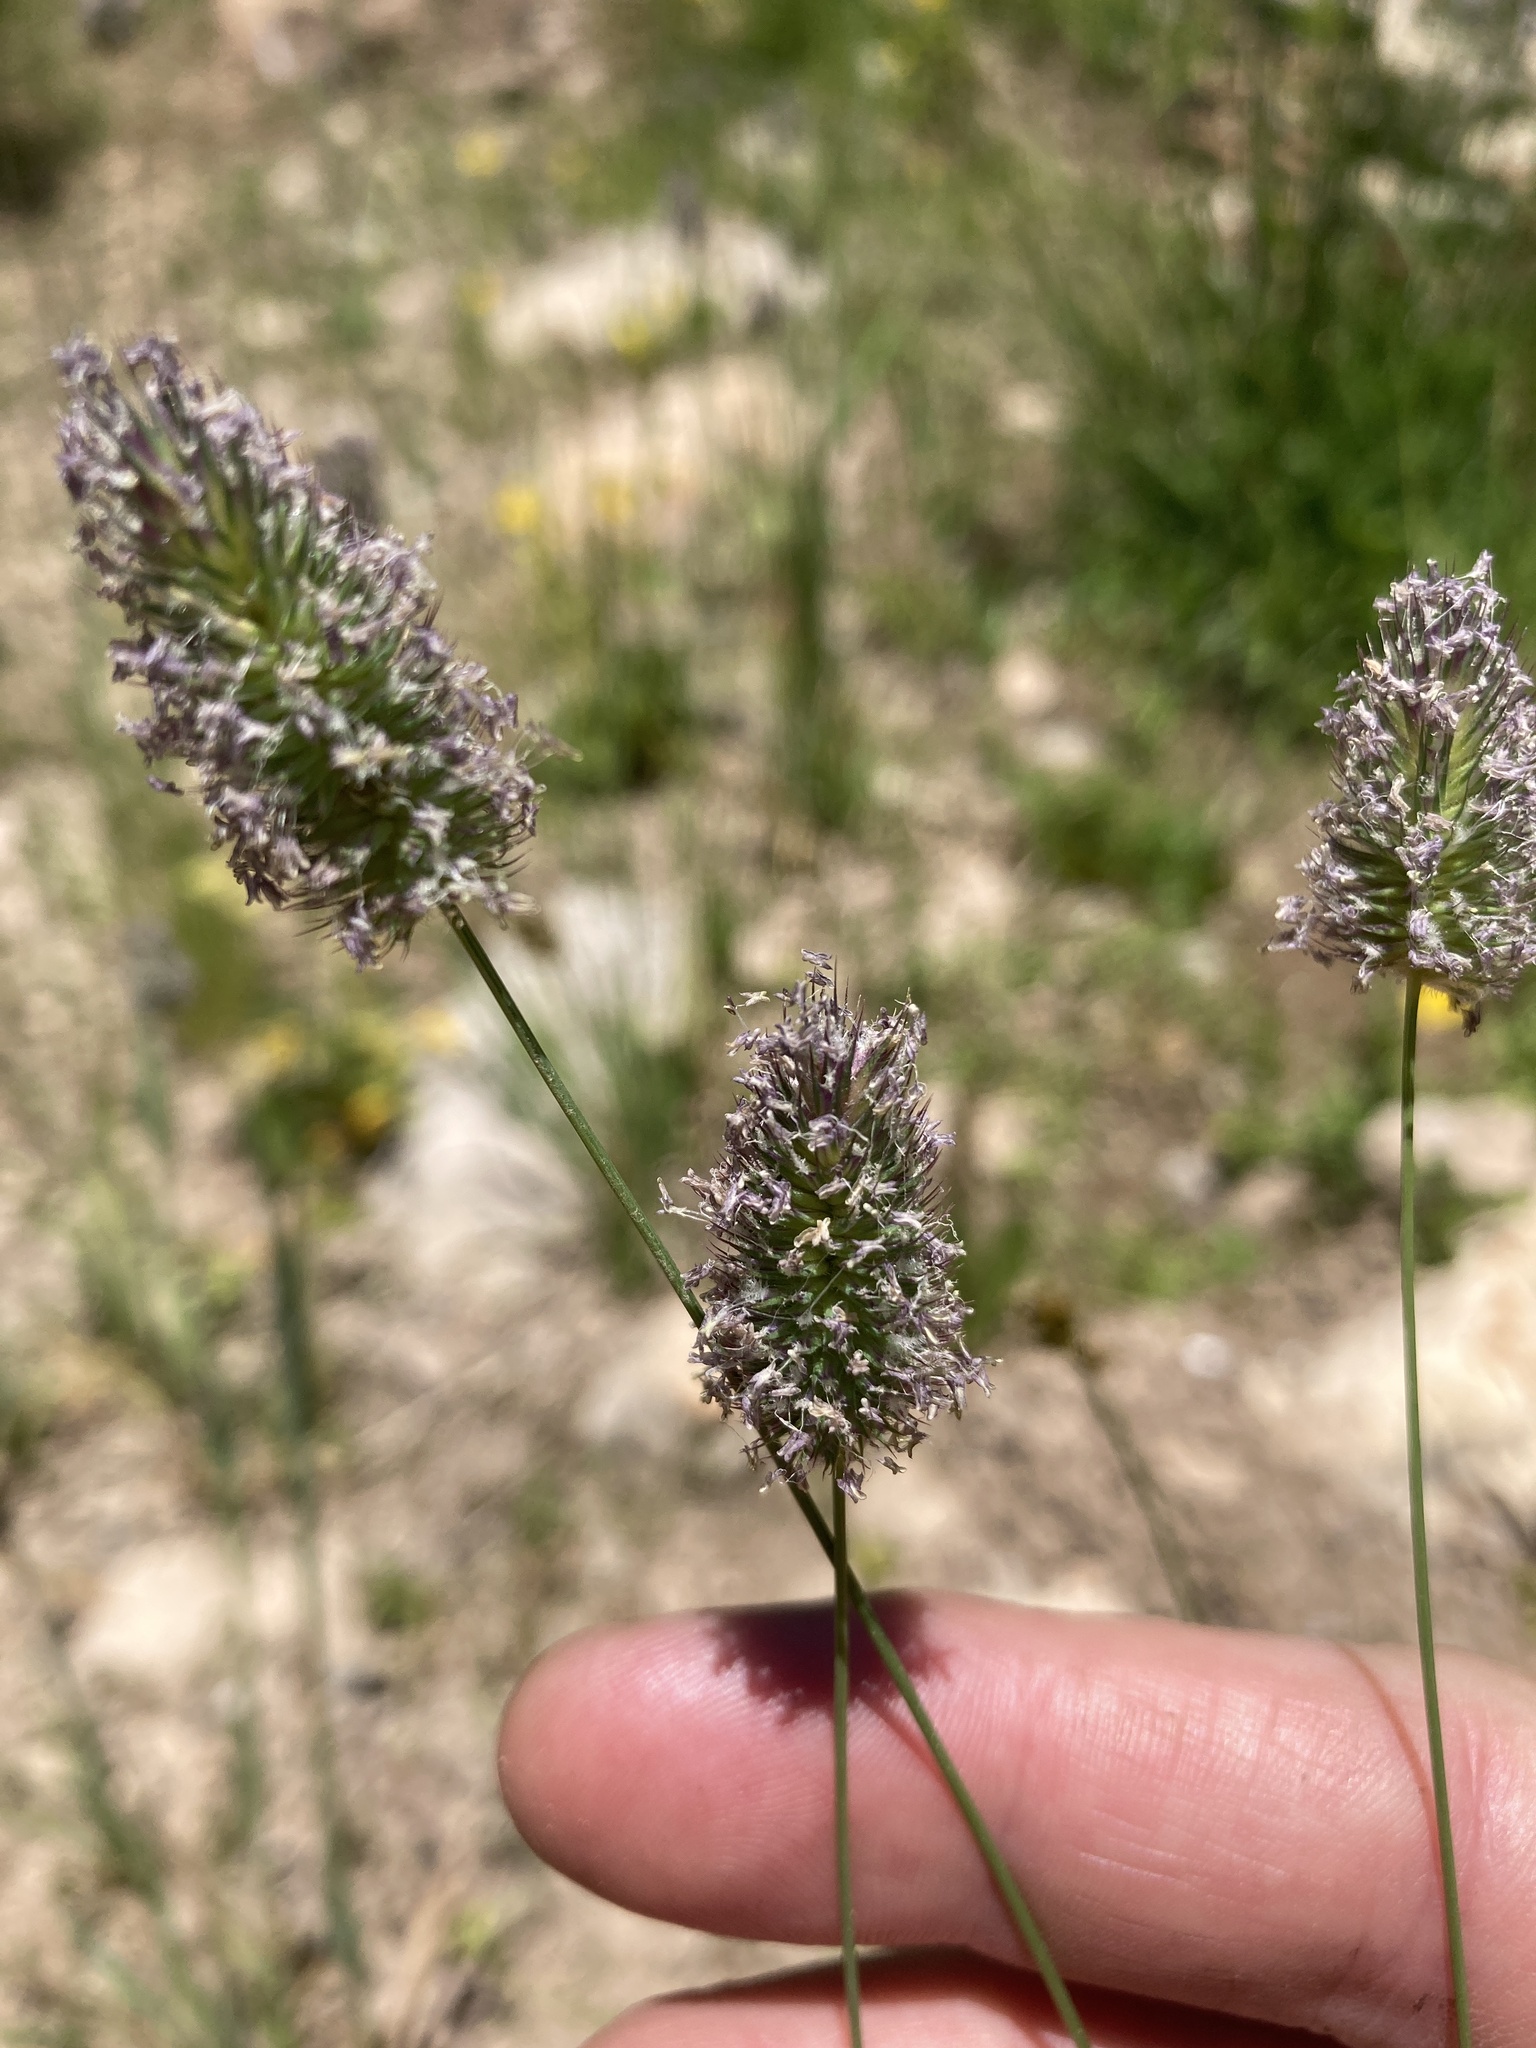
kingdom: Plantae
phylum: Tracheophyta
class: Liliopsida
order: Poales
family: Poaceae
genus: Phleum
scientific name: Phleum alpinum
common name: Alpine cat's-tail
